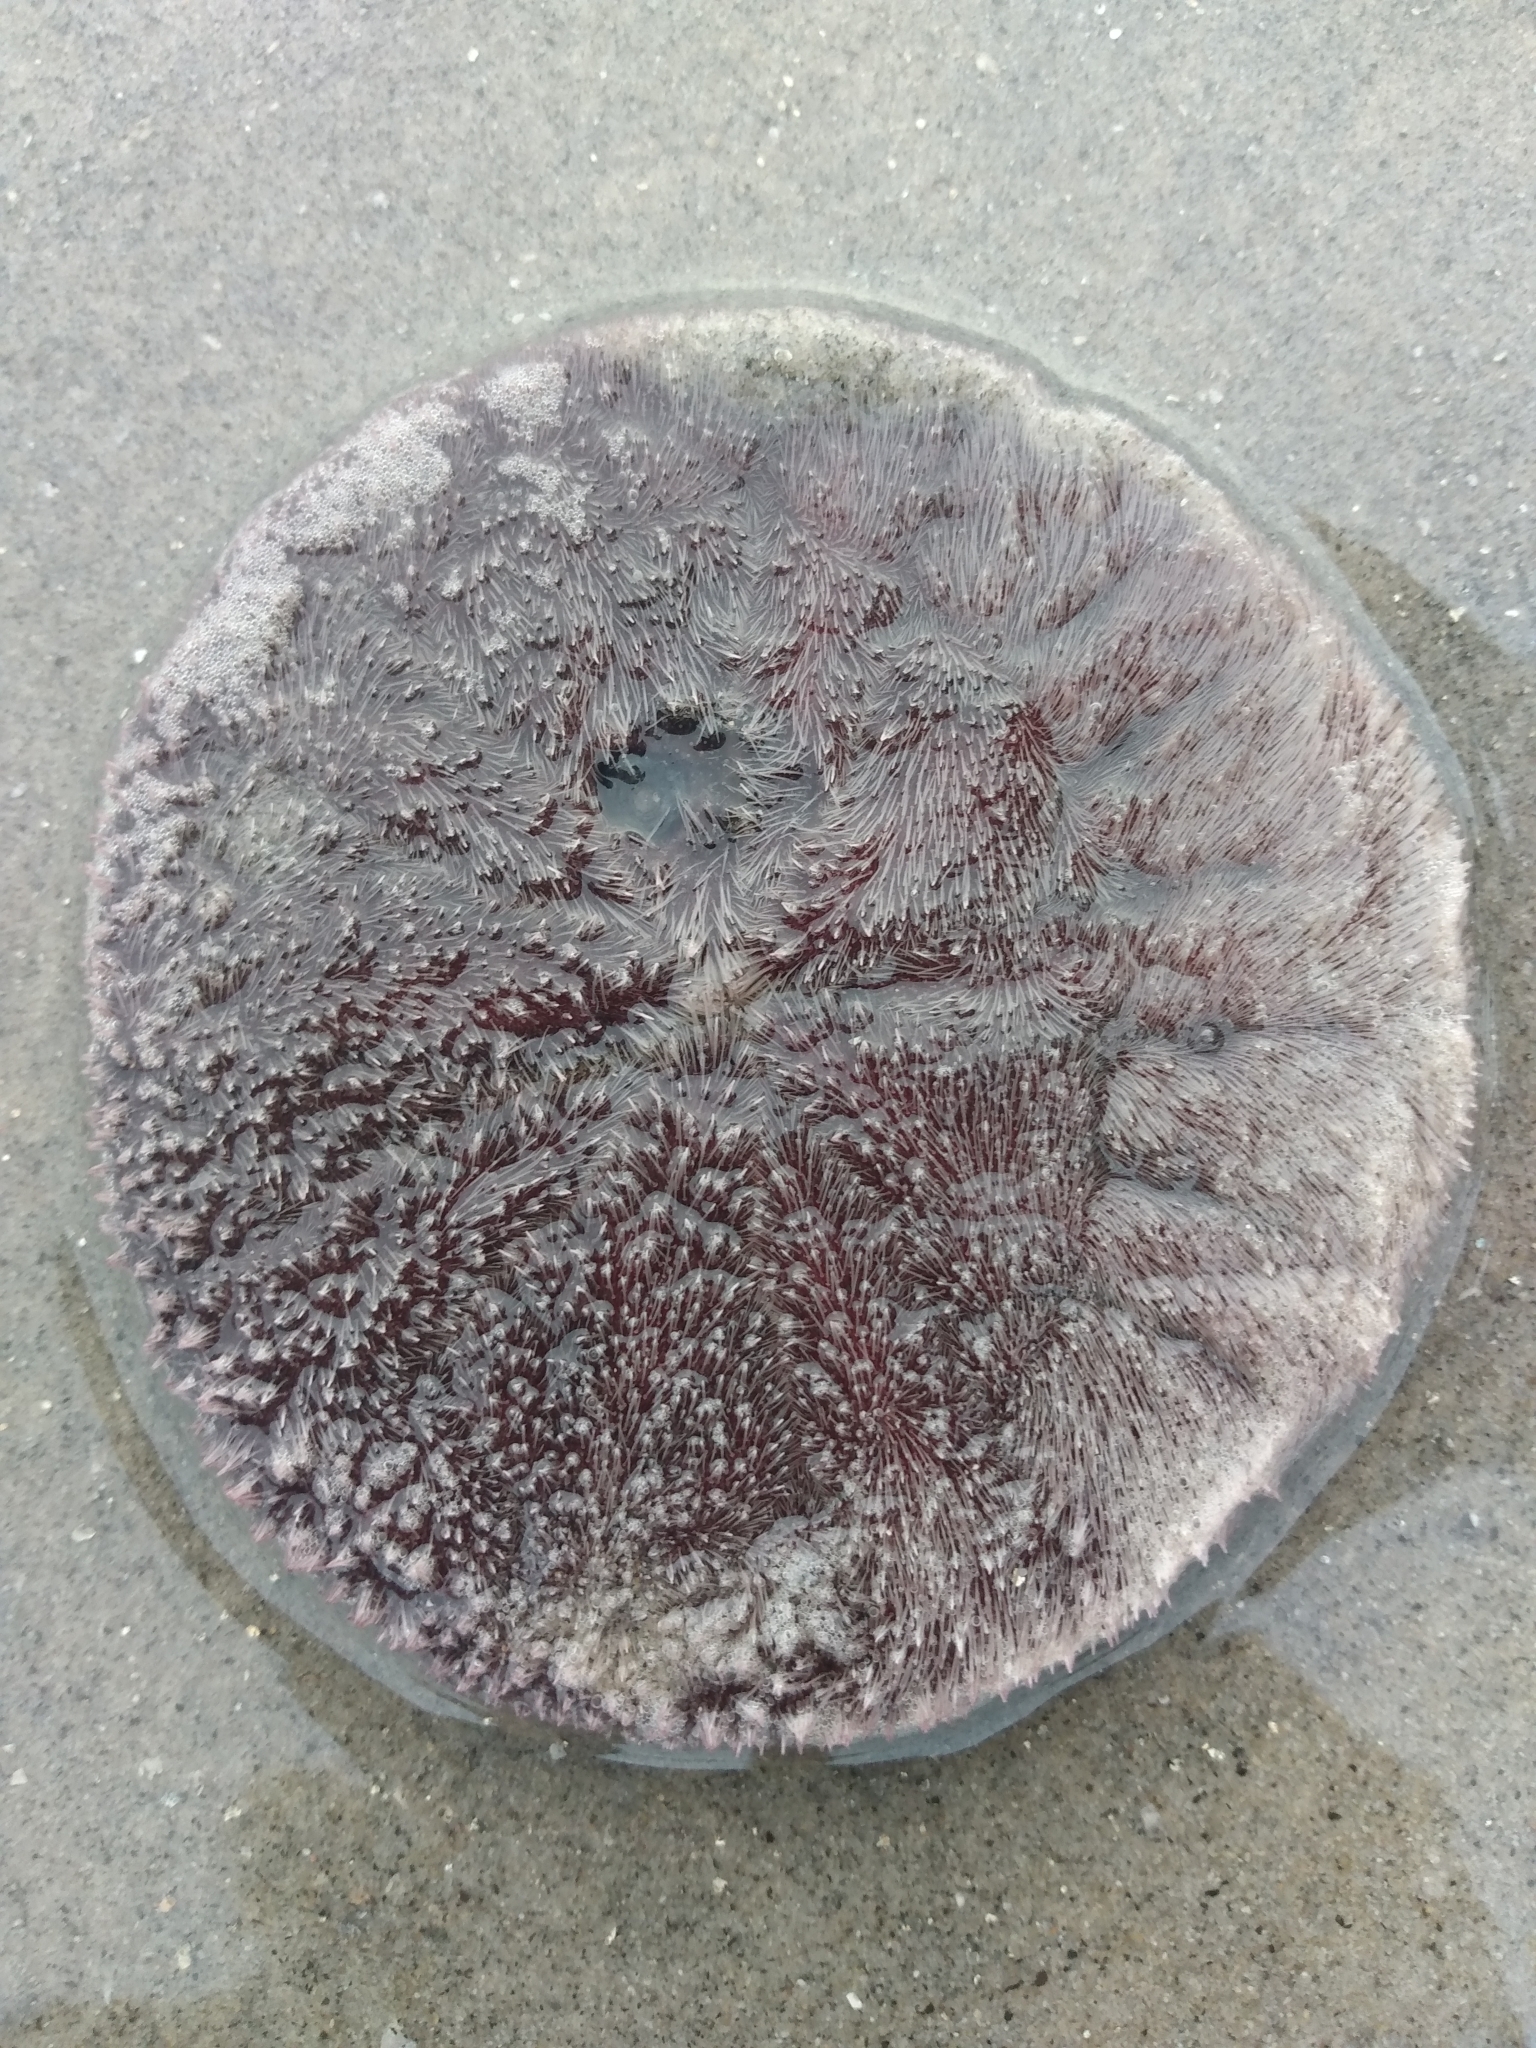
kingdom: Animalia
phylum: Echinodermata
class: Echinoidea
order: Echinolampadacea
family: Dendrasteridae
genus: Dendraster
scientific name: Dendraster excentricus
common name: Eccentric sand dollar sea urchin
